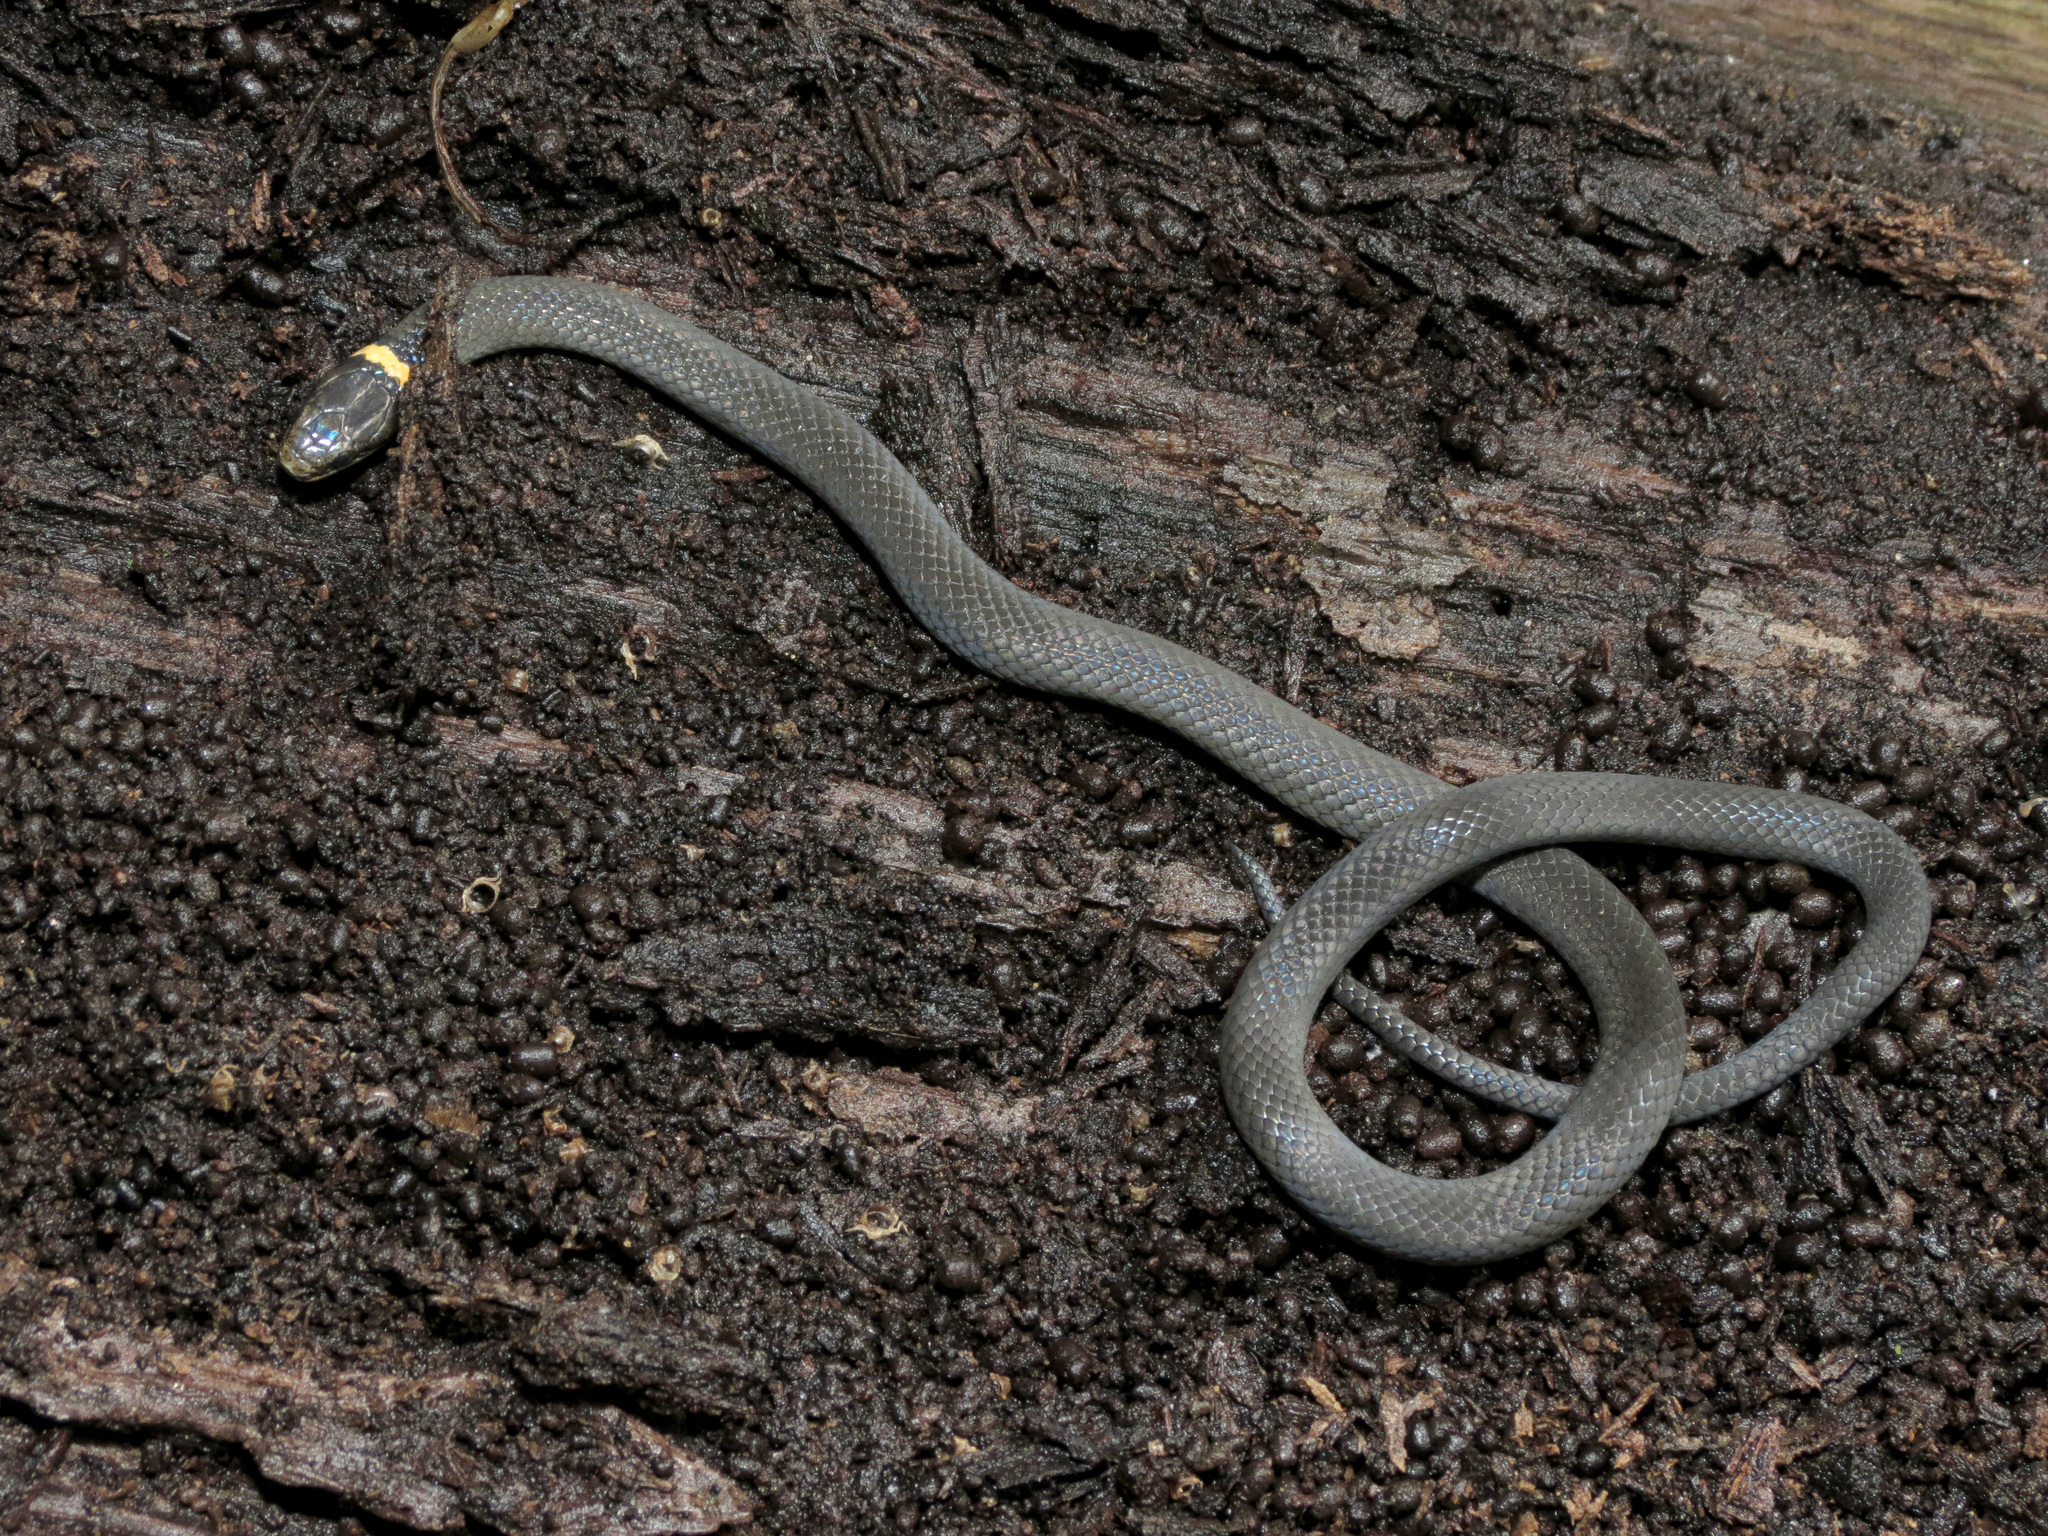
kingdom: Animalia
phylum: Chordata
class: Squamata
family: Colubridae
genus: Diadophis
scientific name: Diadophis punctatus
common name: Ringneck snake
